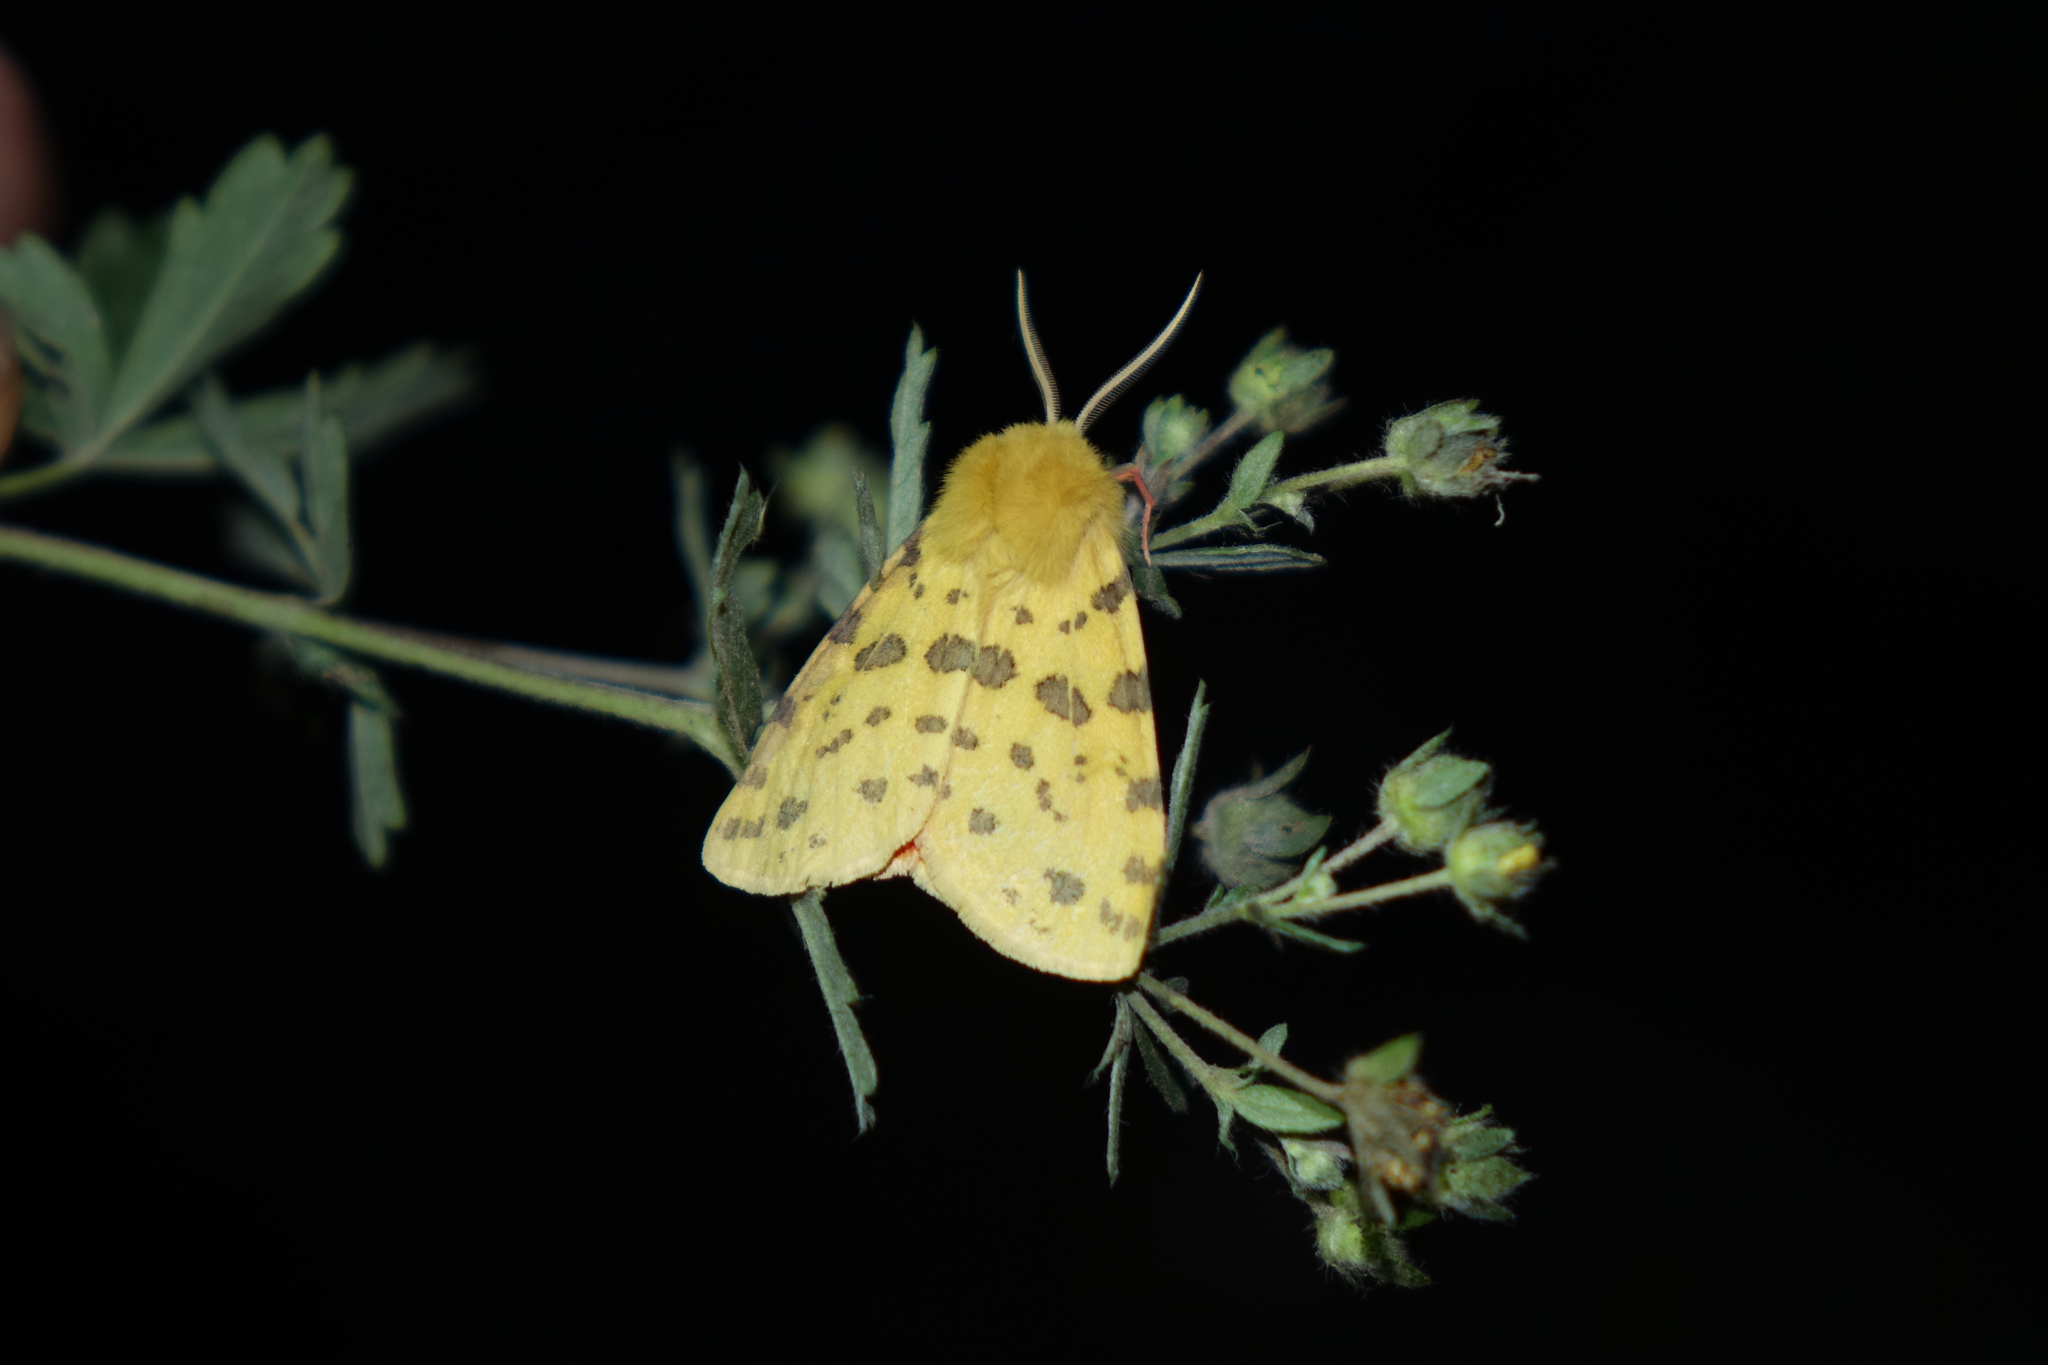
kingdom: Animalia
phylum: Arthropoda
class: Insecta
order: Lepidoptera
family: Erebidae
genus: Rhyparia
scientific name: Rhyparia purpurata
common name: Purple tiger
